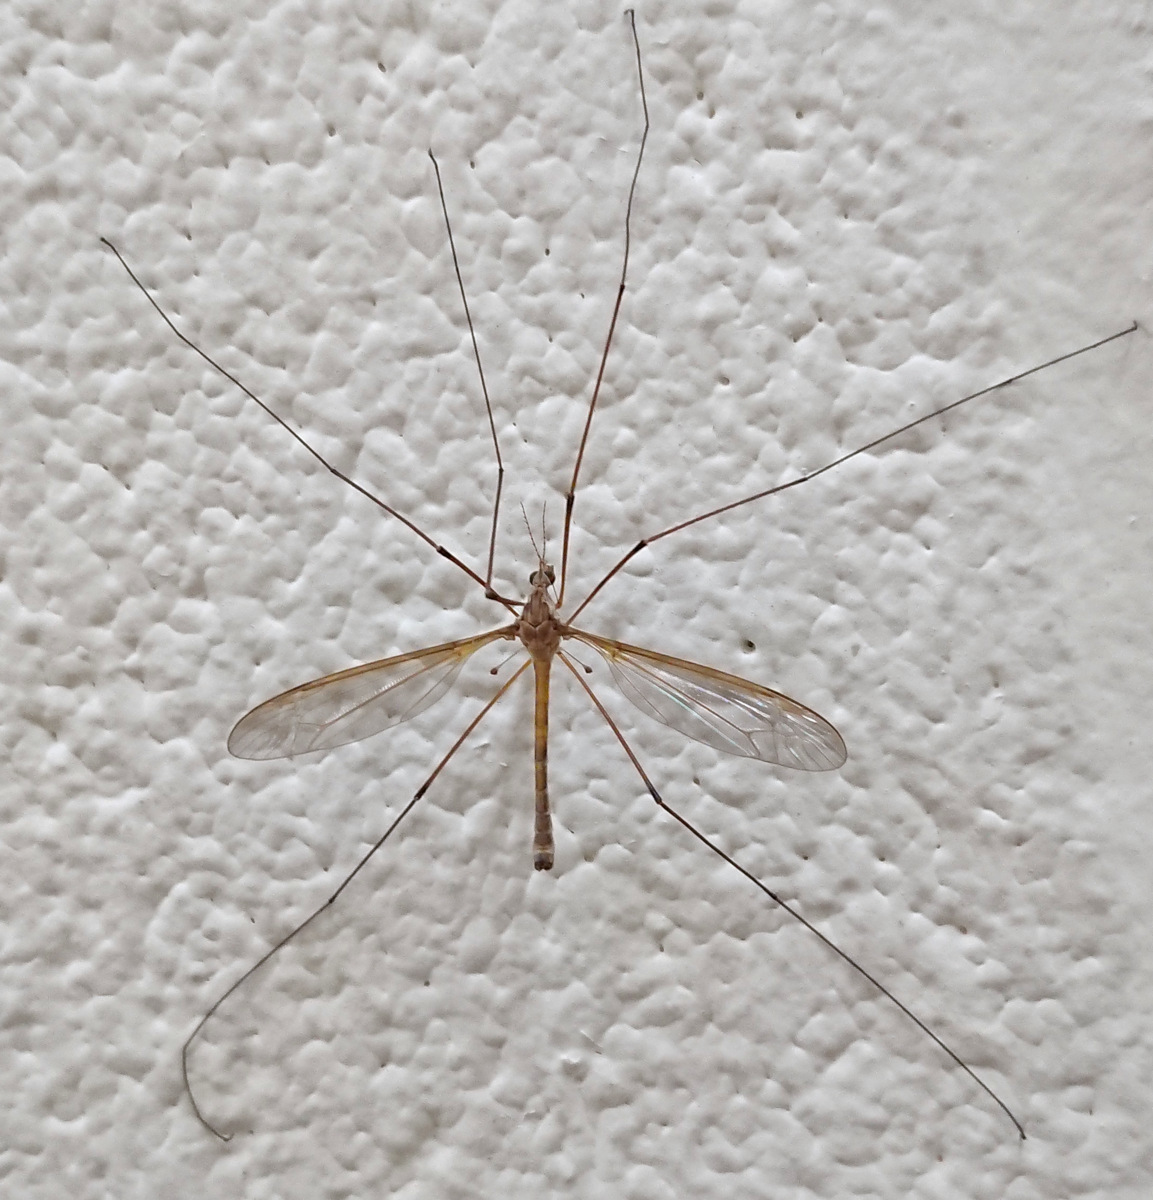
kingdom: Animalia
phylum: Arthropoda
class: Insecta
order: Diptera
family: Tipulidae
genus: Tipula
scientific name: Tipula jacobus
